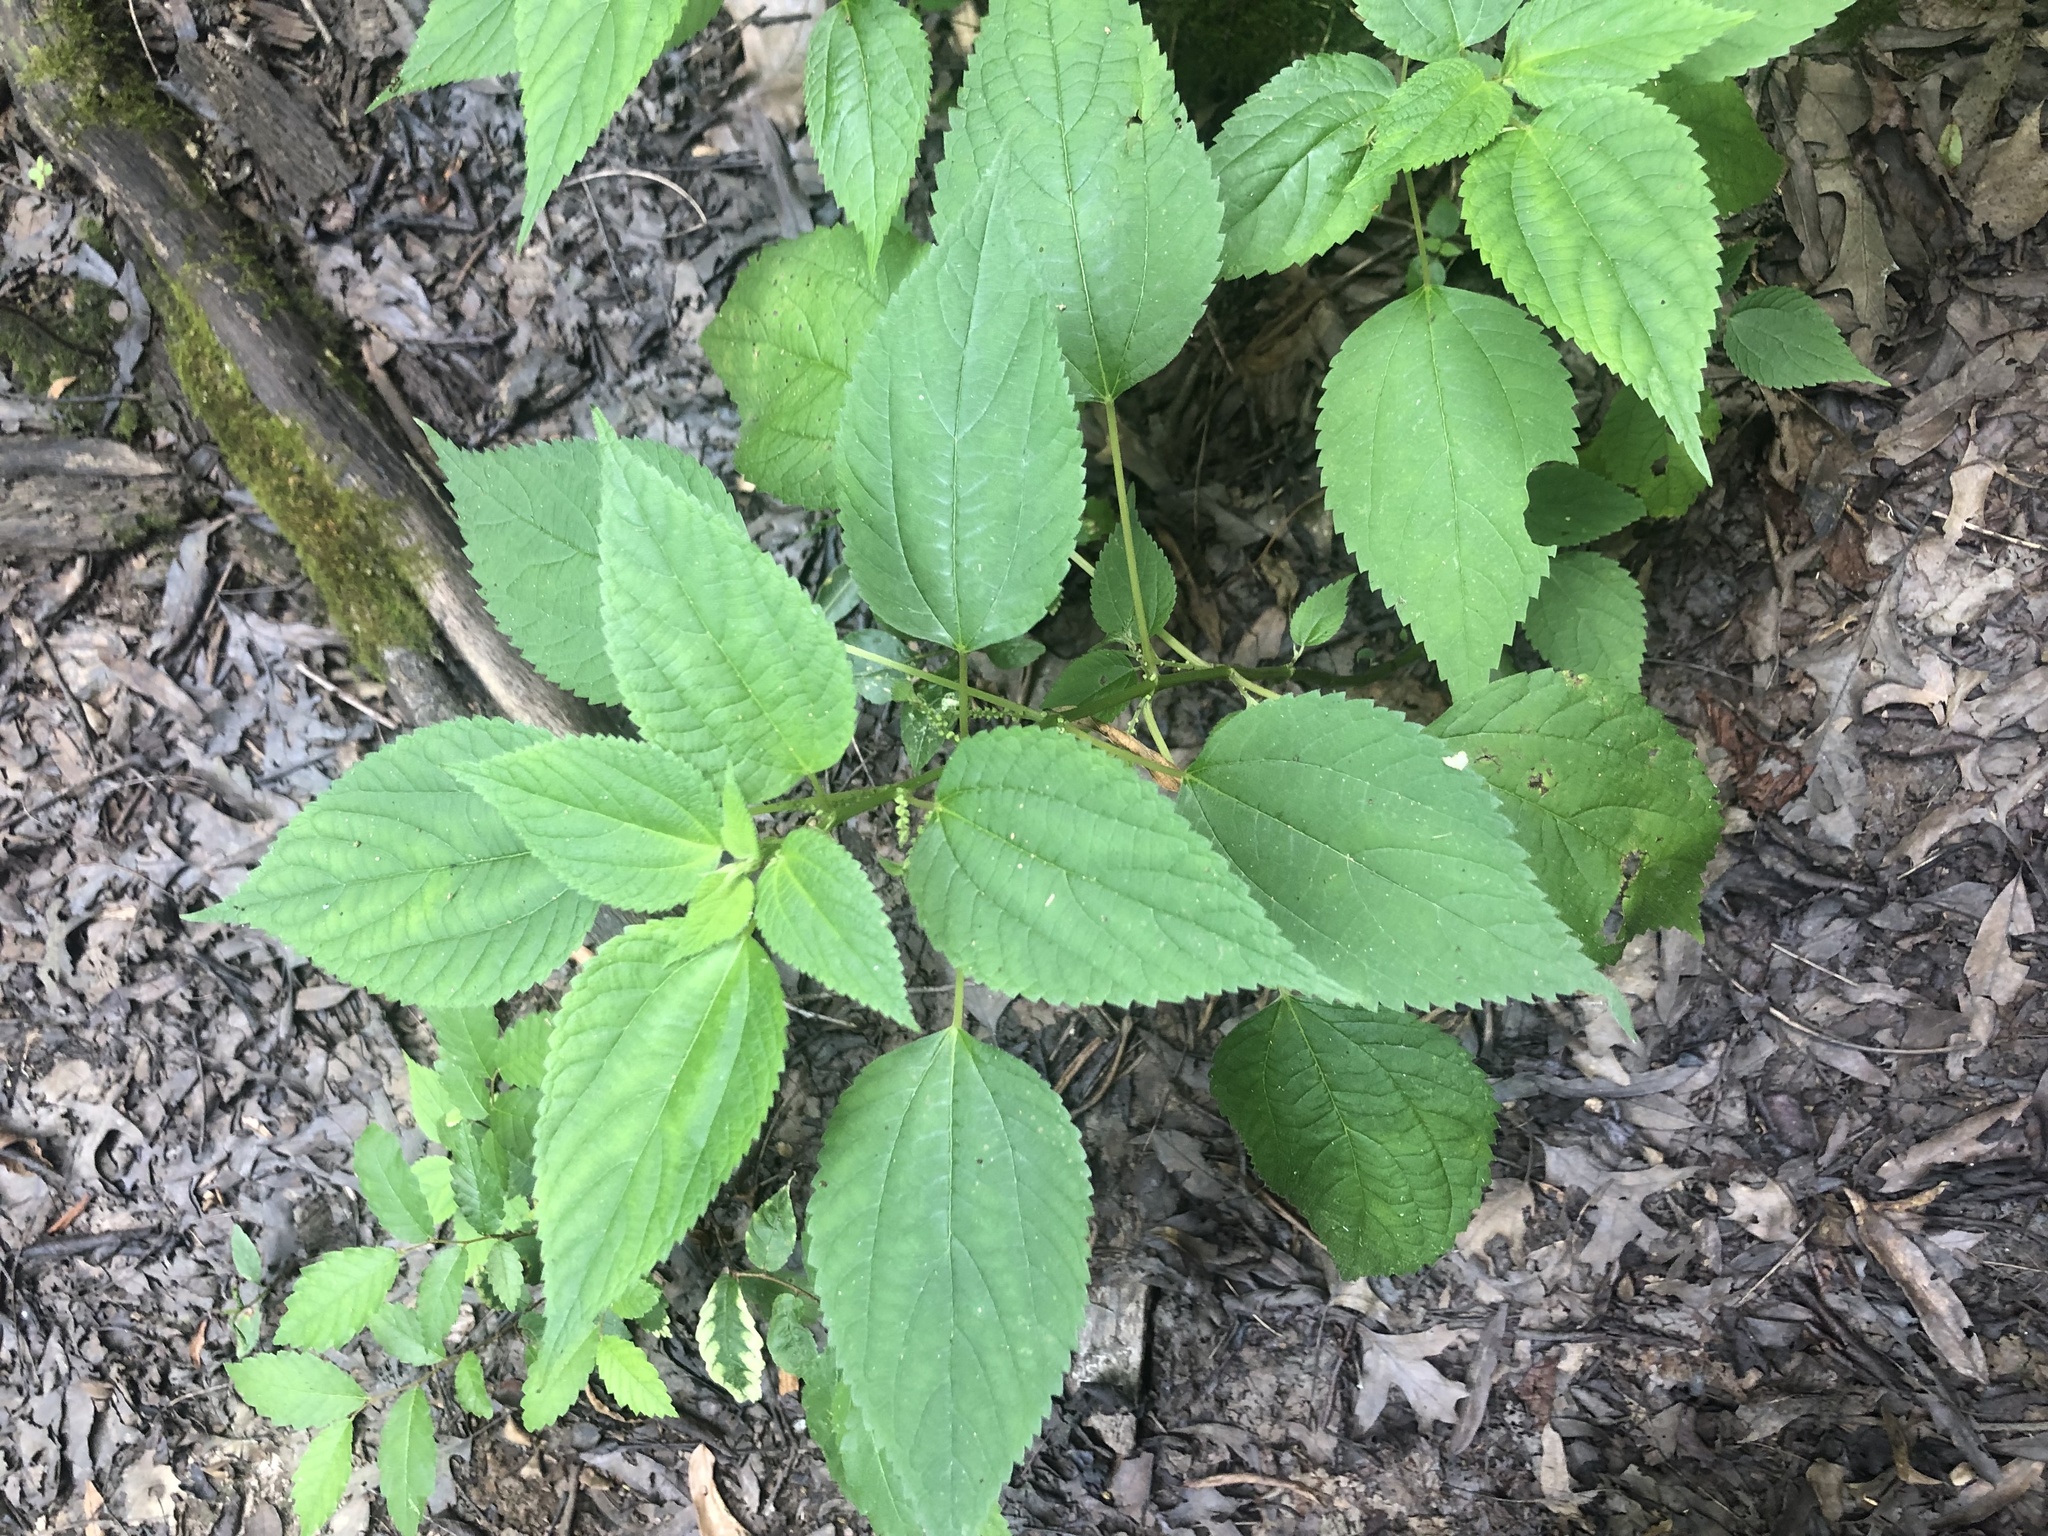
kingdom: Plantae
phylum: Tracheophyta
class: Magnoliopsida
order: Rosales
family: Urticaceae
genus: Boehmeria
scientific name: Boehmeria cylindrica
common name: Bog-hemp
